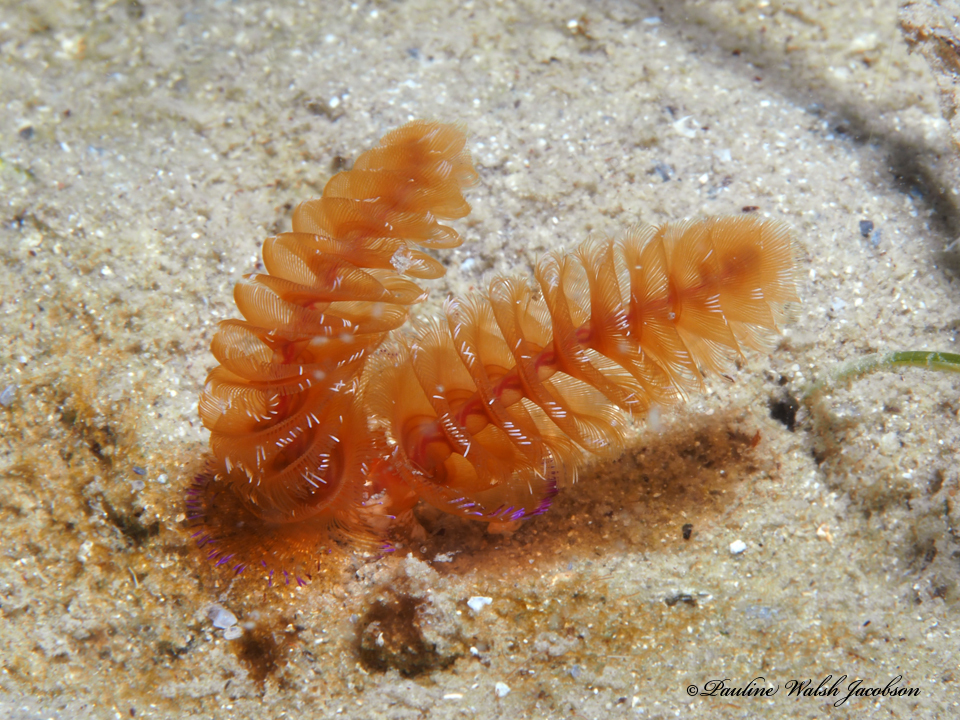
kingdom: Animalia
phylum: Phoronida
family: Phoronidae
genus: Phoronopsis
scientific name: Phoronopsis californica
